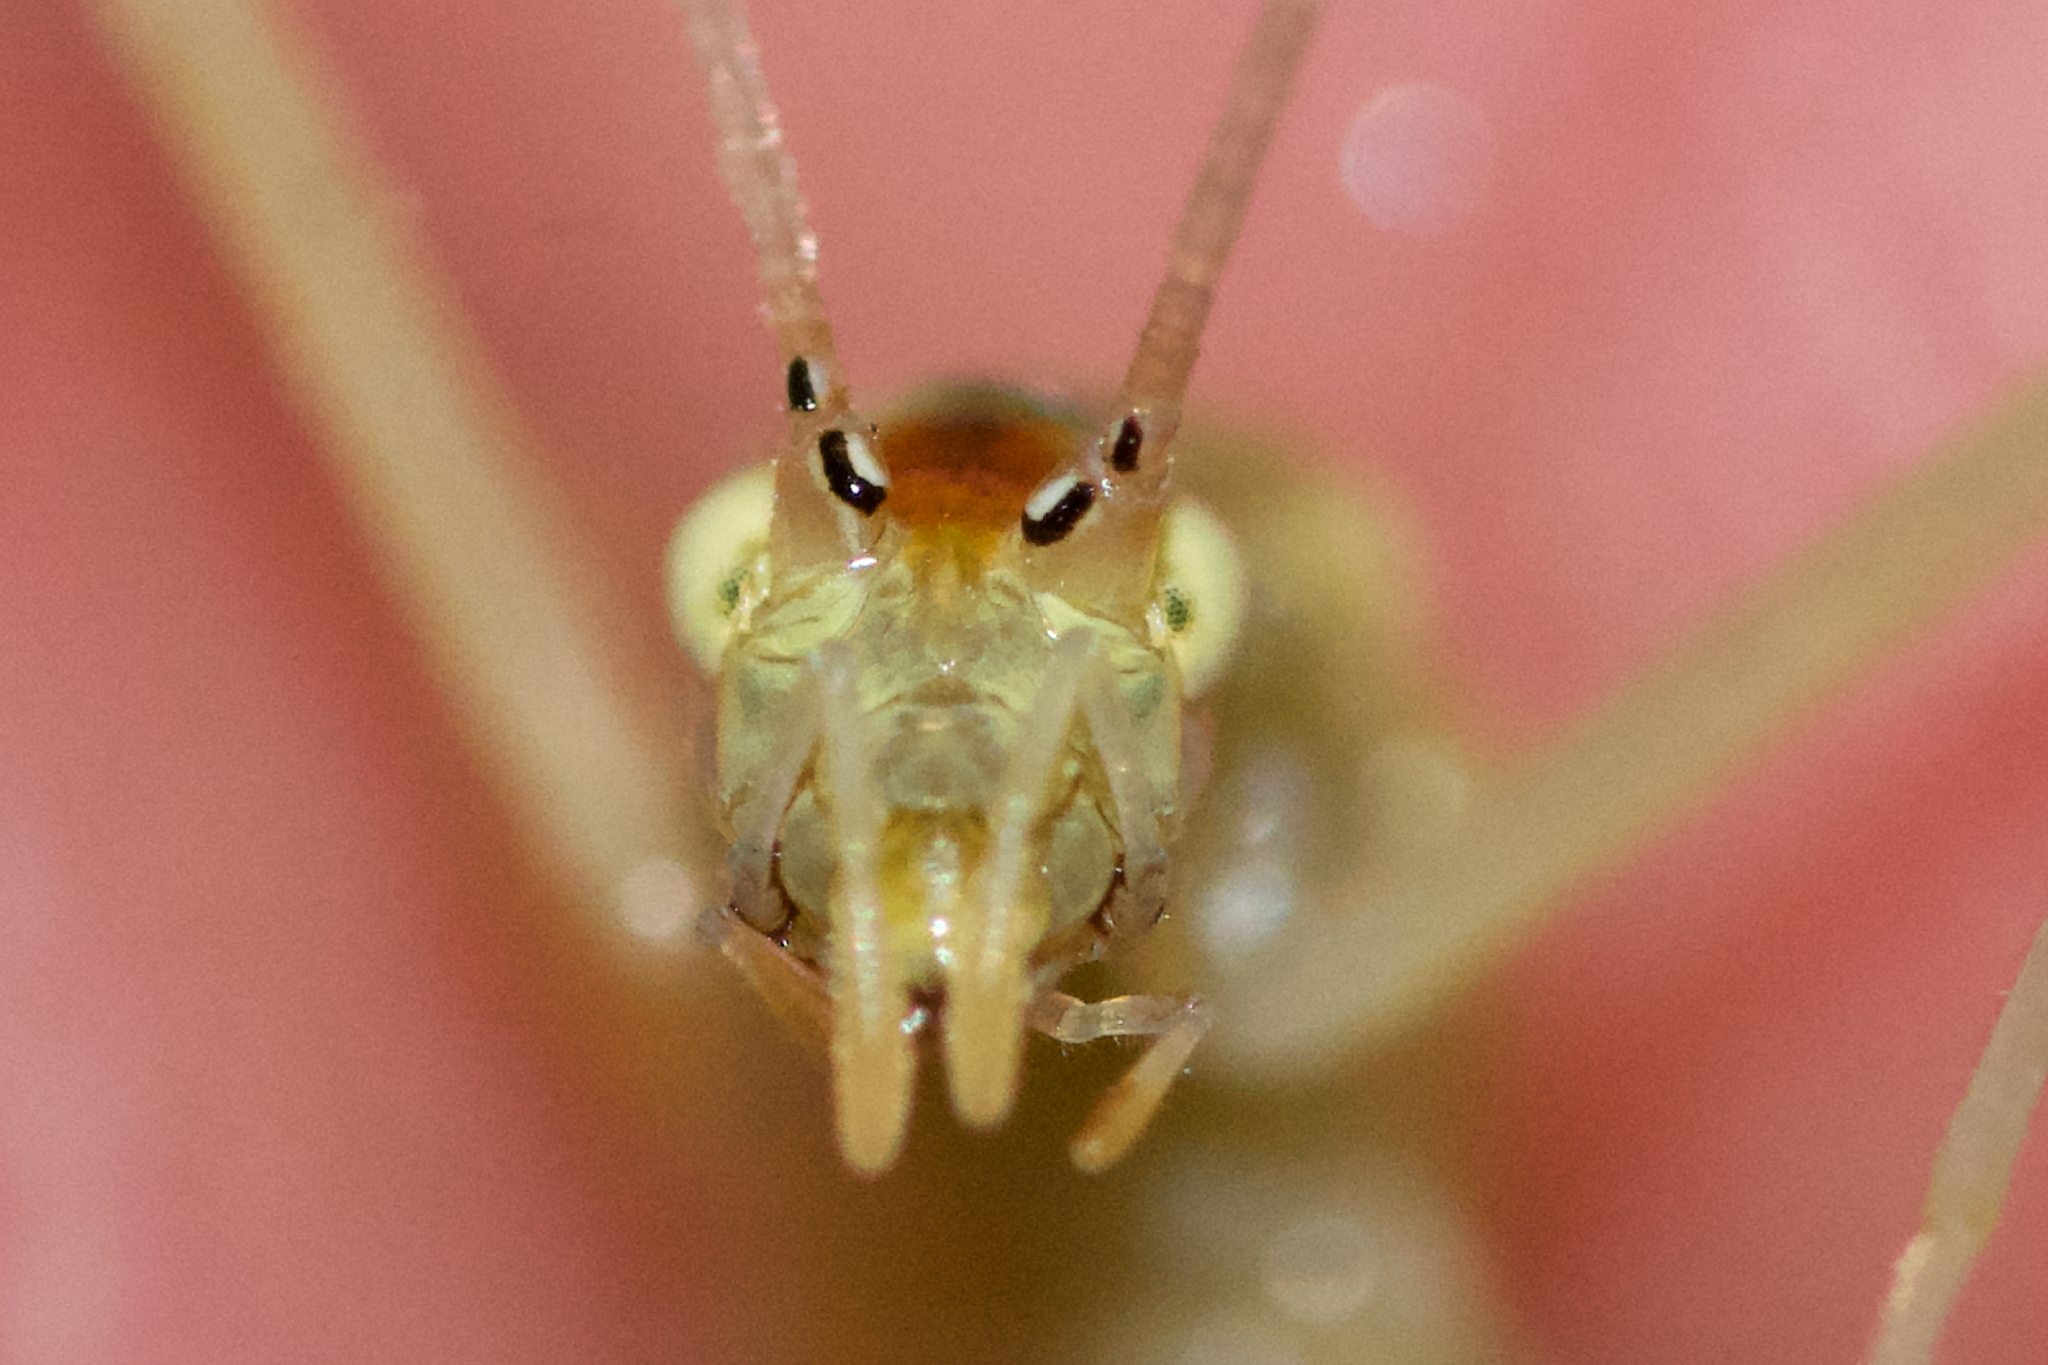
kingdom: Animalia
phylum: Arthropoda
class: Insecta
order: Orthoptera
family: Gryllidae
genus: Oecanthus
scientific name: Oecanthus niveus
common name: Narrow-winged tree cricket
